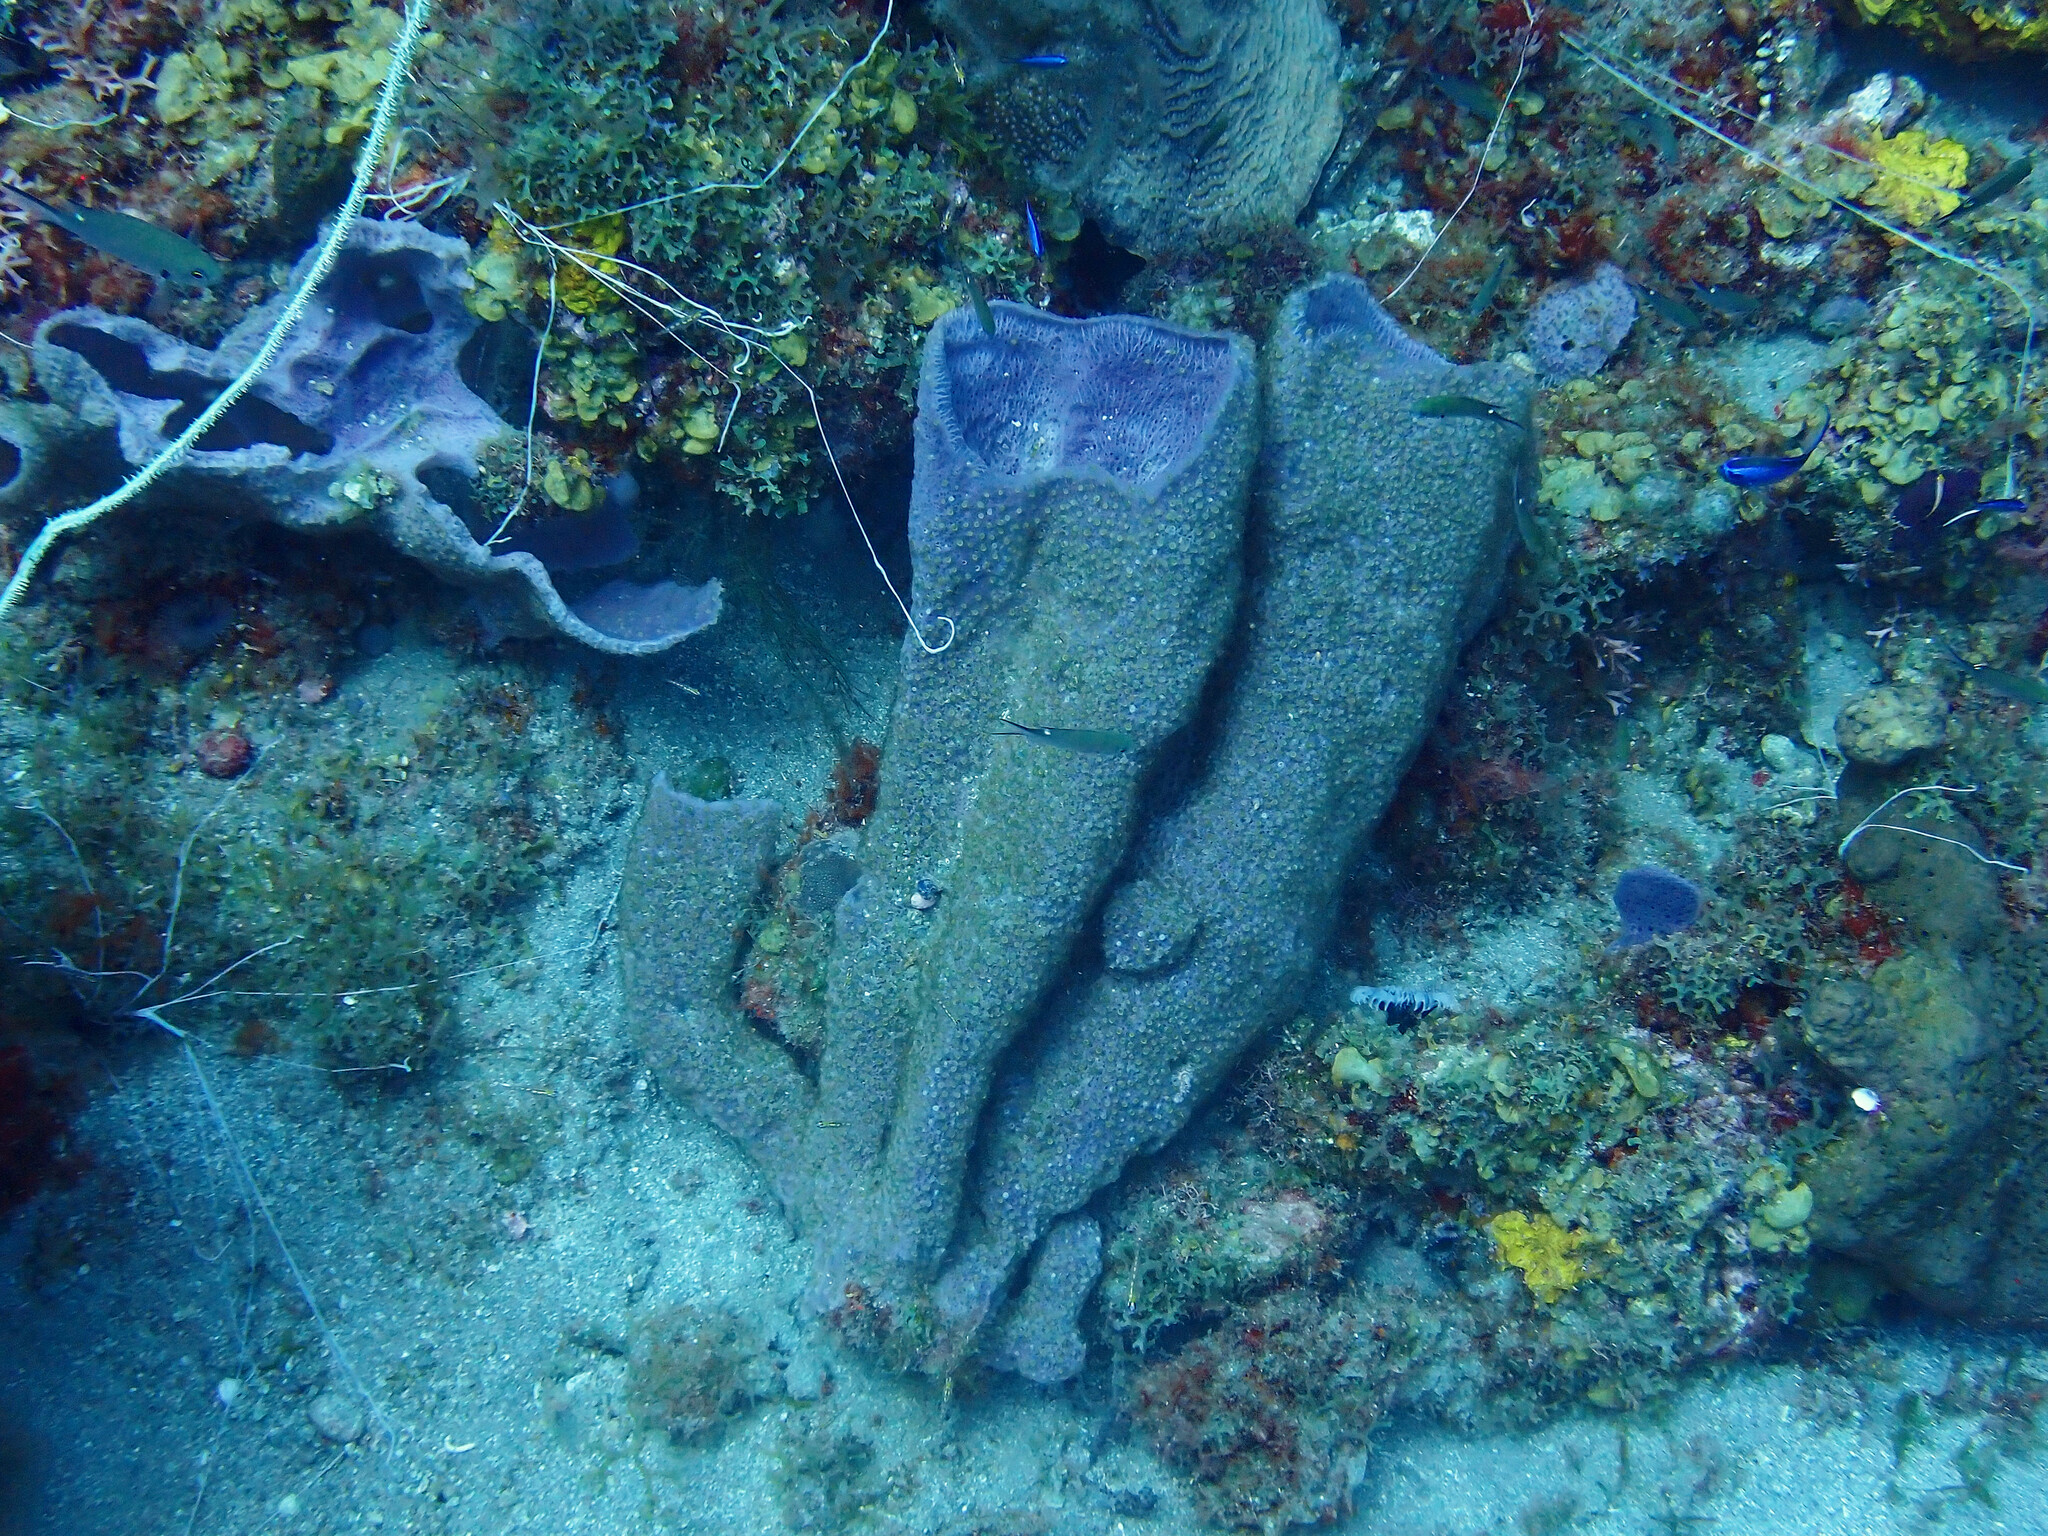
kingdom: Animalia
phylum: Porifera
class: Demospongiae
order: Haplosclerida
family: Niphatidae
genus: Niphates
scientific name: Niphates digitalis
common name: Pink vase sponge
